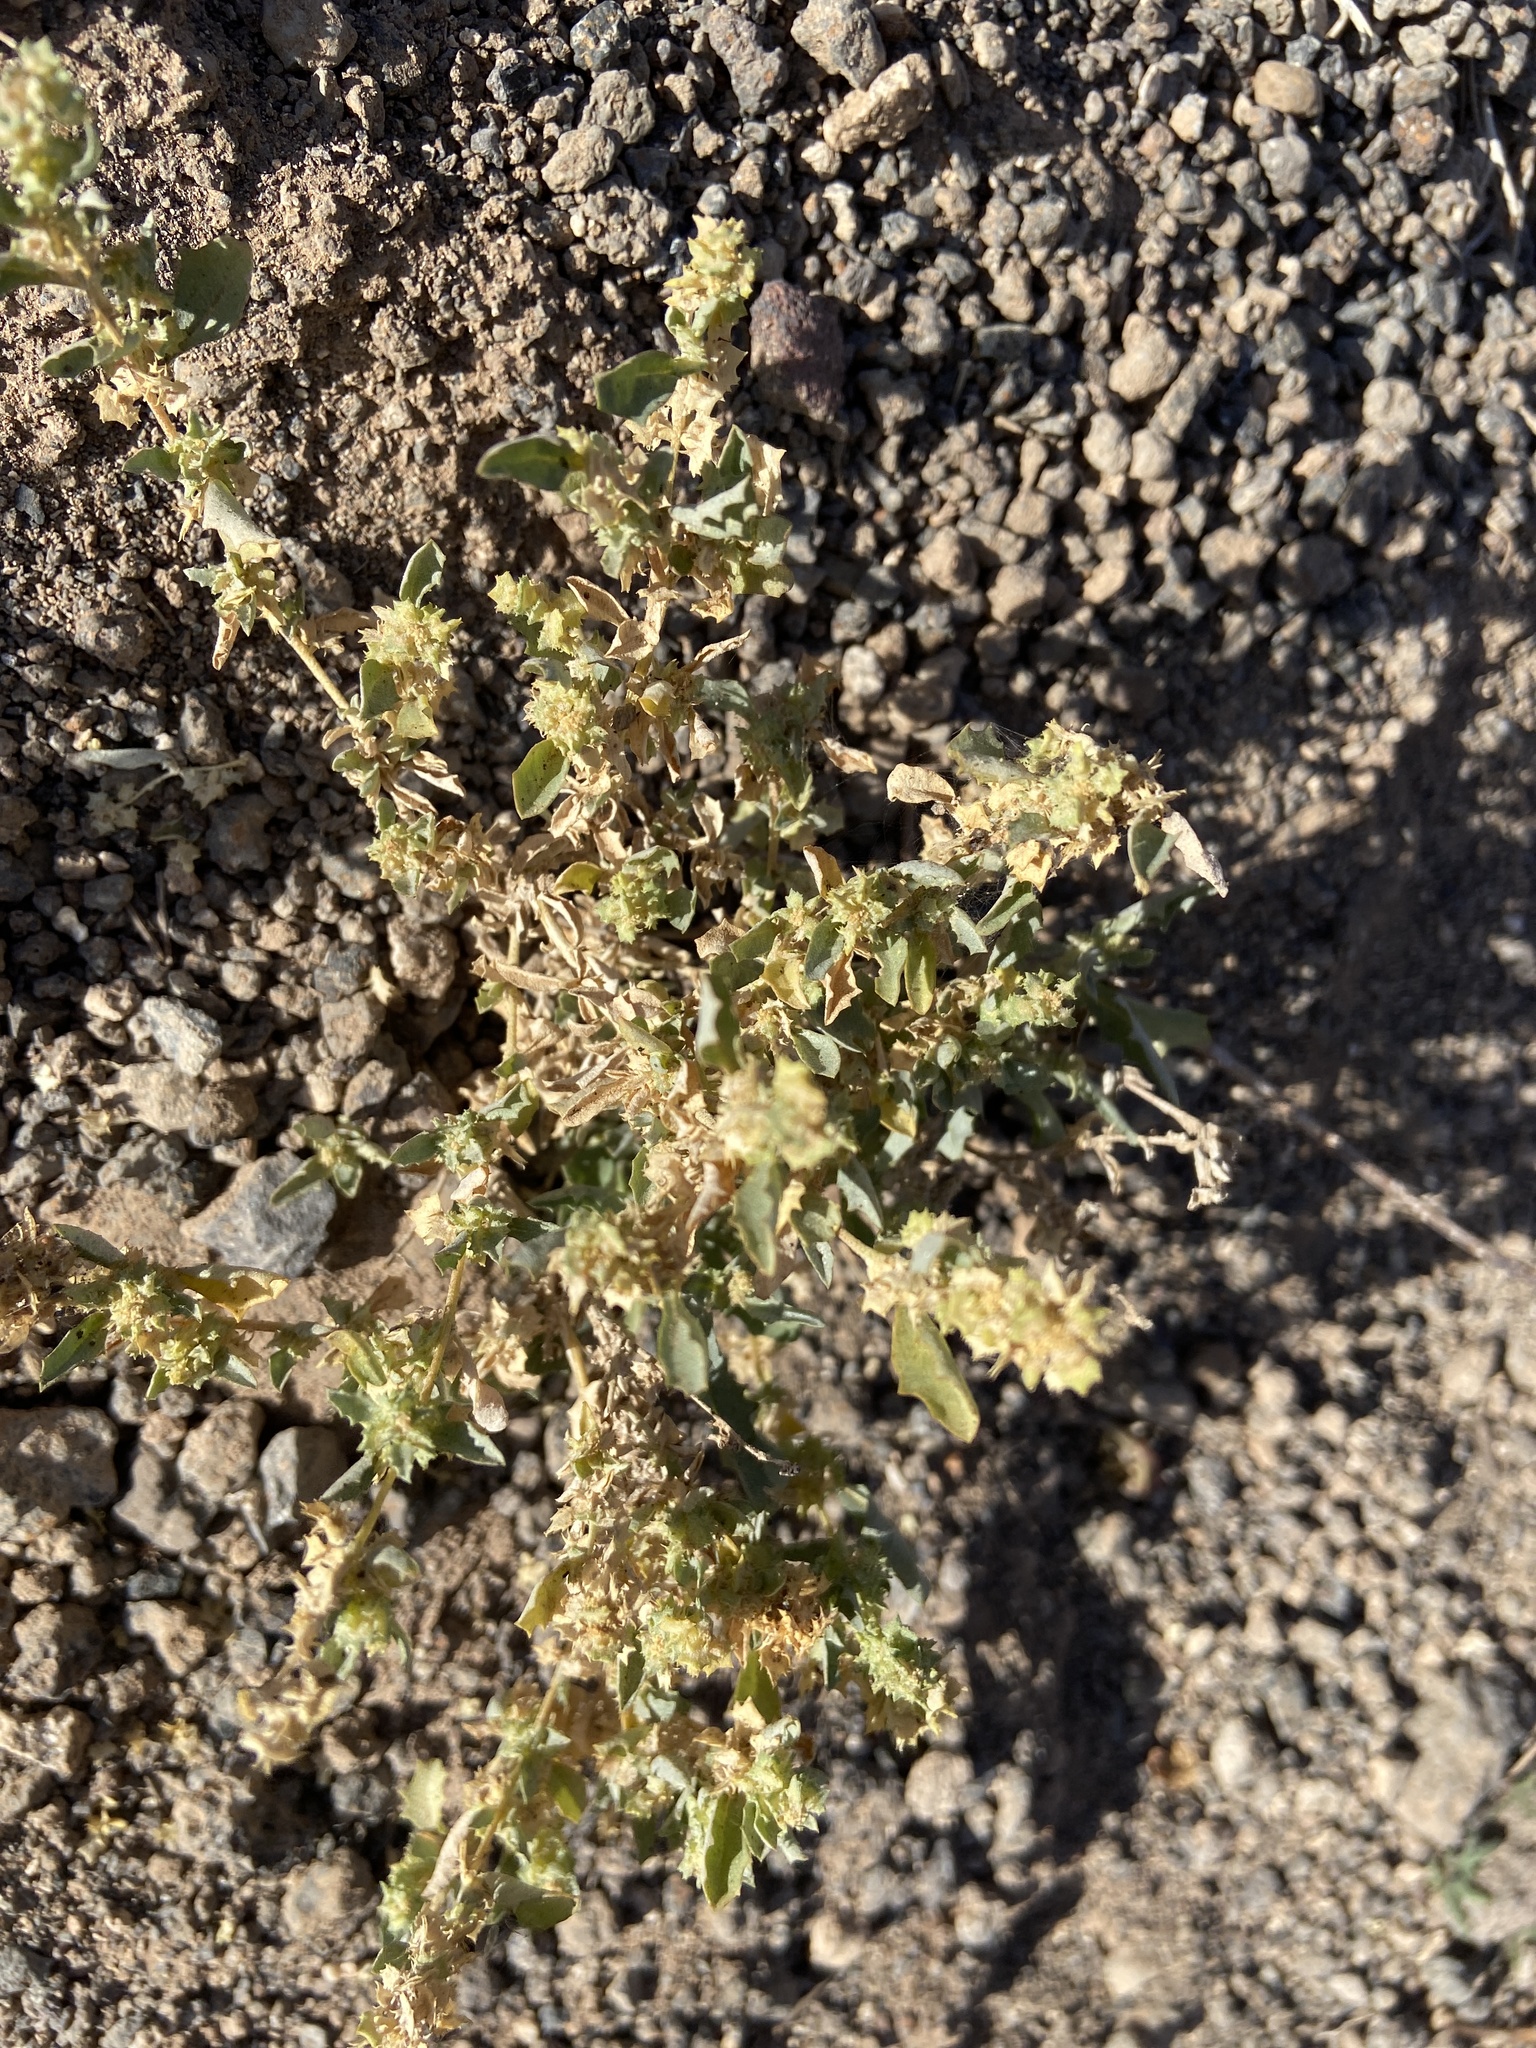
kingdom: Plantae
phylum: Tracheophyta
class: Magnoliopsida
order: Caryophyllales
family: Amaranthaceae
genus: Atriplex
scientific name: Atriplex semilunaris
